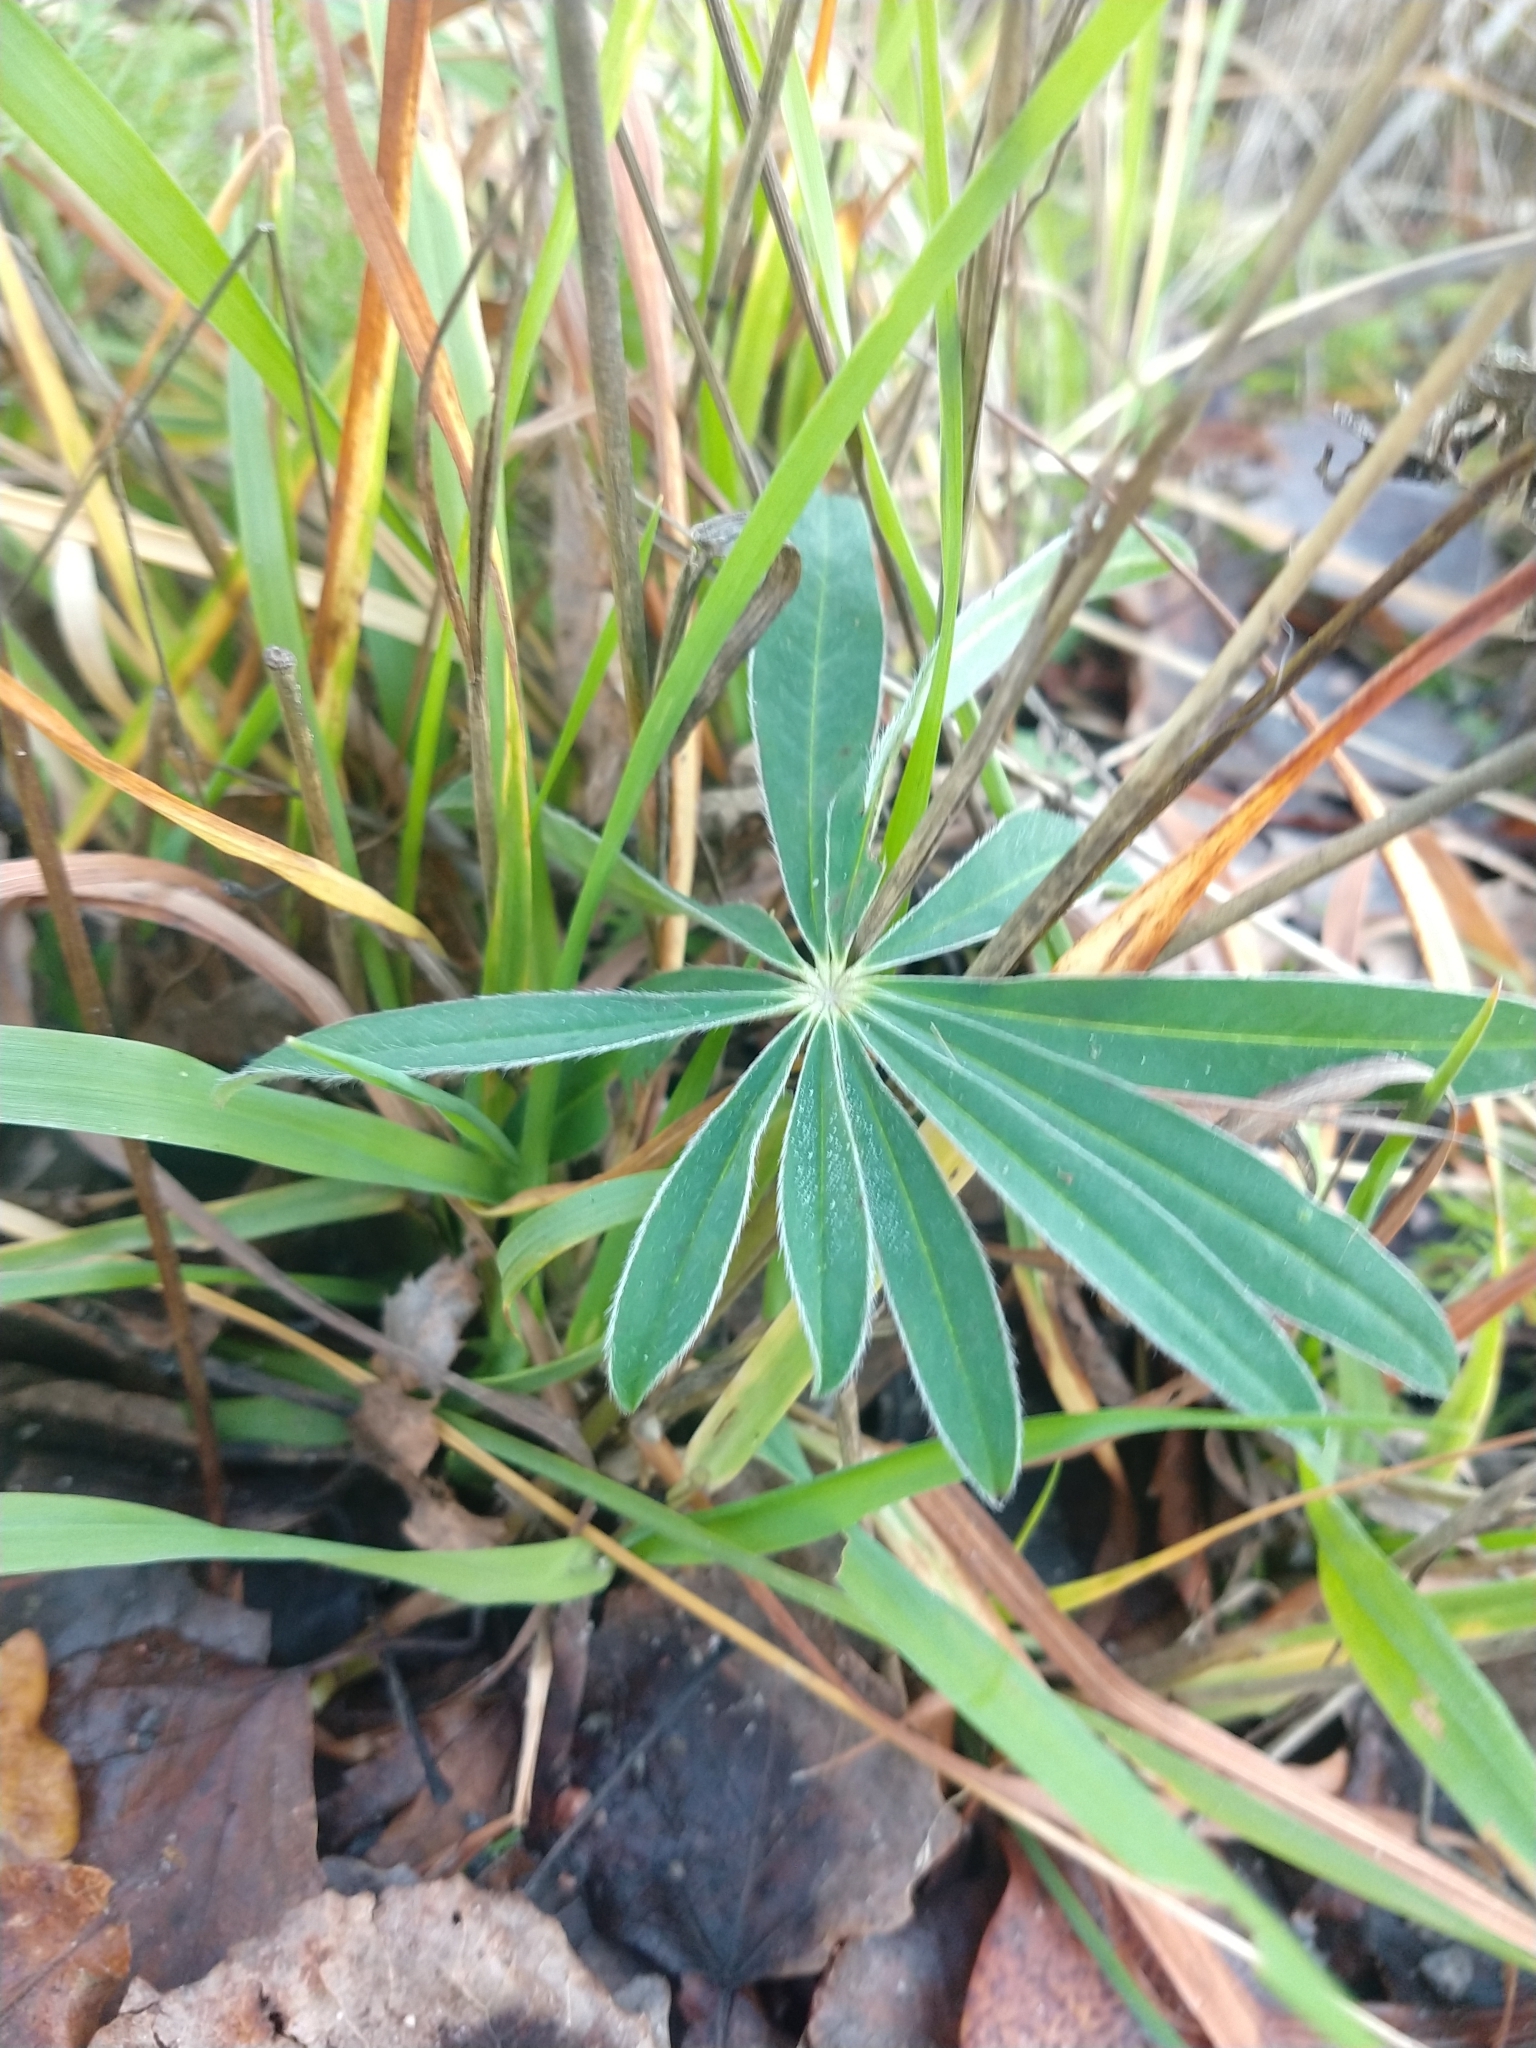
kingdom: Plantae
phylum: Tracheophyta
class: Magnoliopsida
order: Fabales
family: Fabaceae
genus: Lupinus
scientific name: Lupinus polyphyllus
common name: Garden lupin
